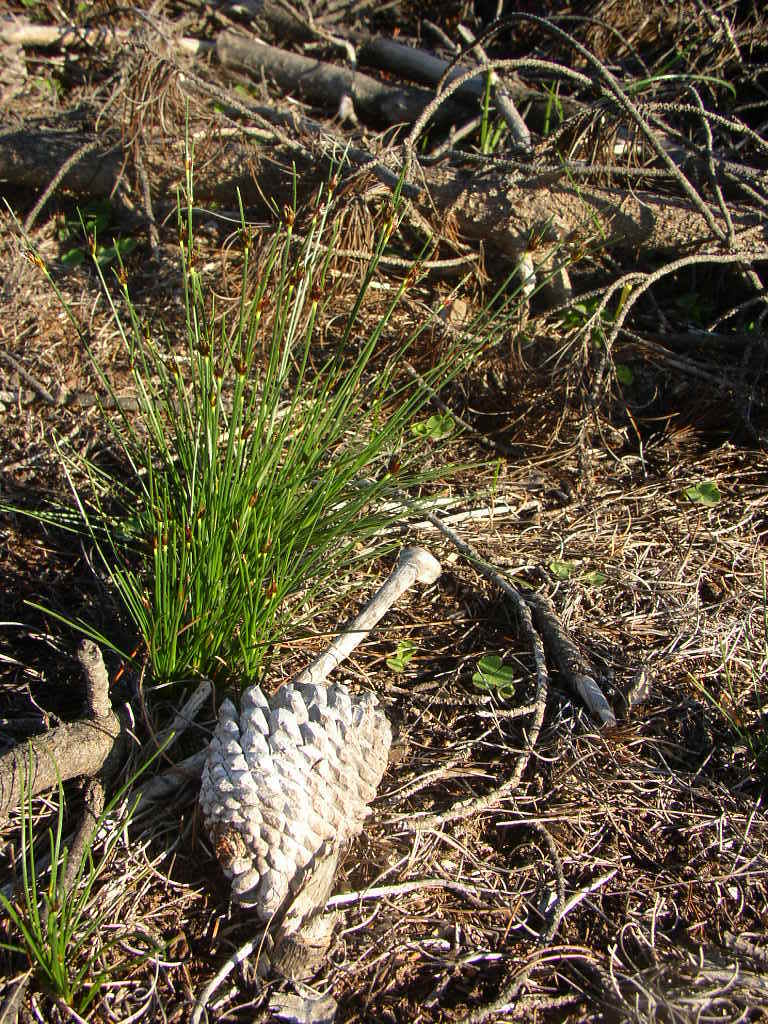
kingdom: Plantae
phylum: Tracheophyta
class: Liliopsida
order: Poales
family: Cyperaceae
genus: Ficinia
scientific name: Ficinia indica
